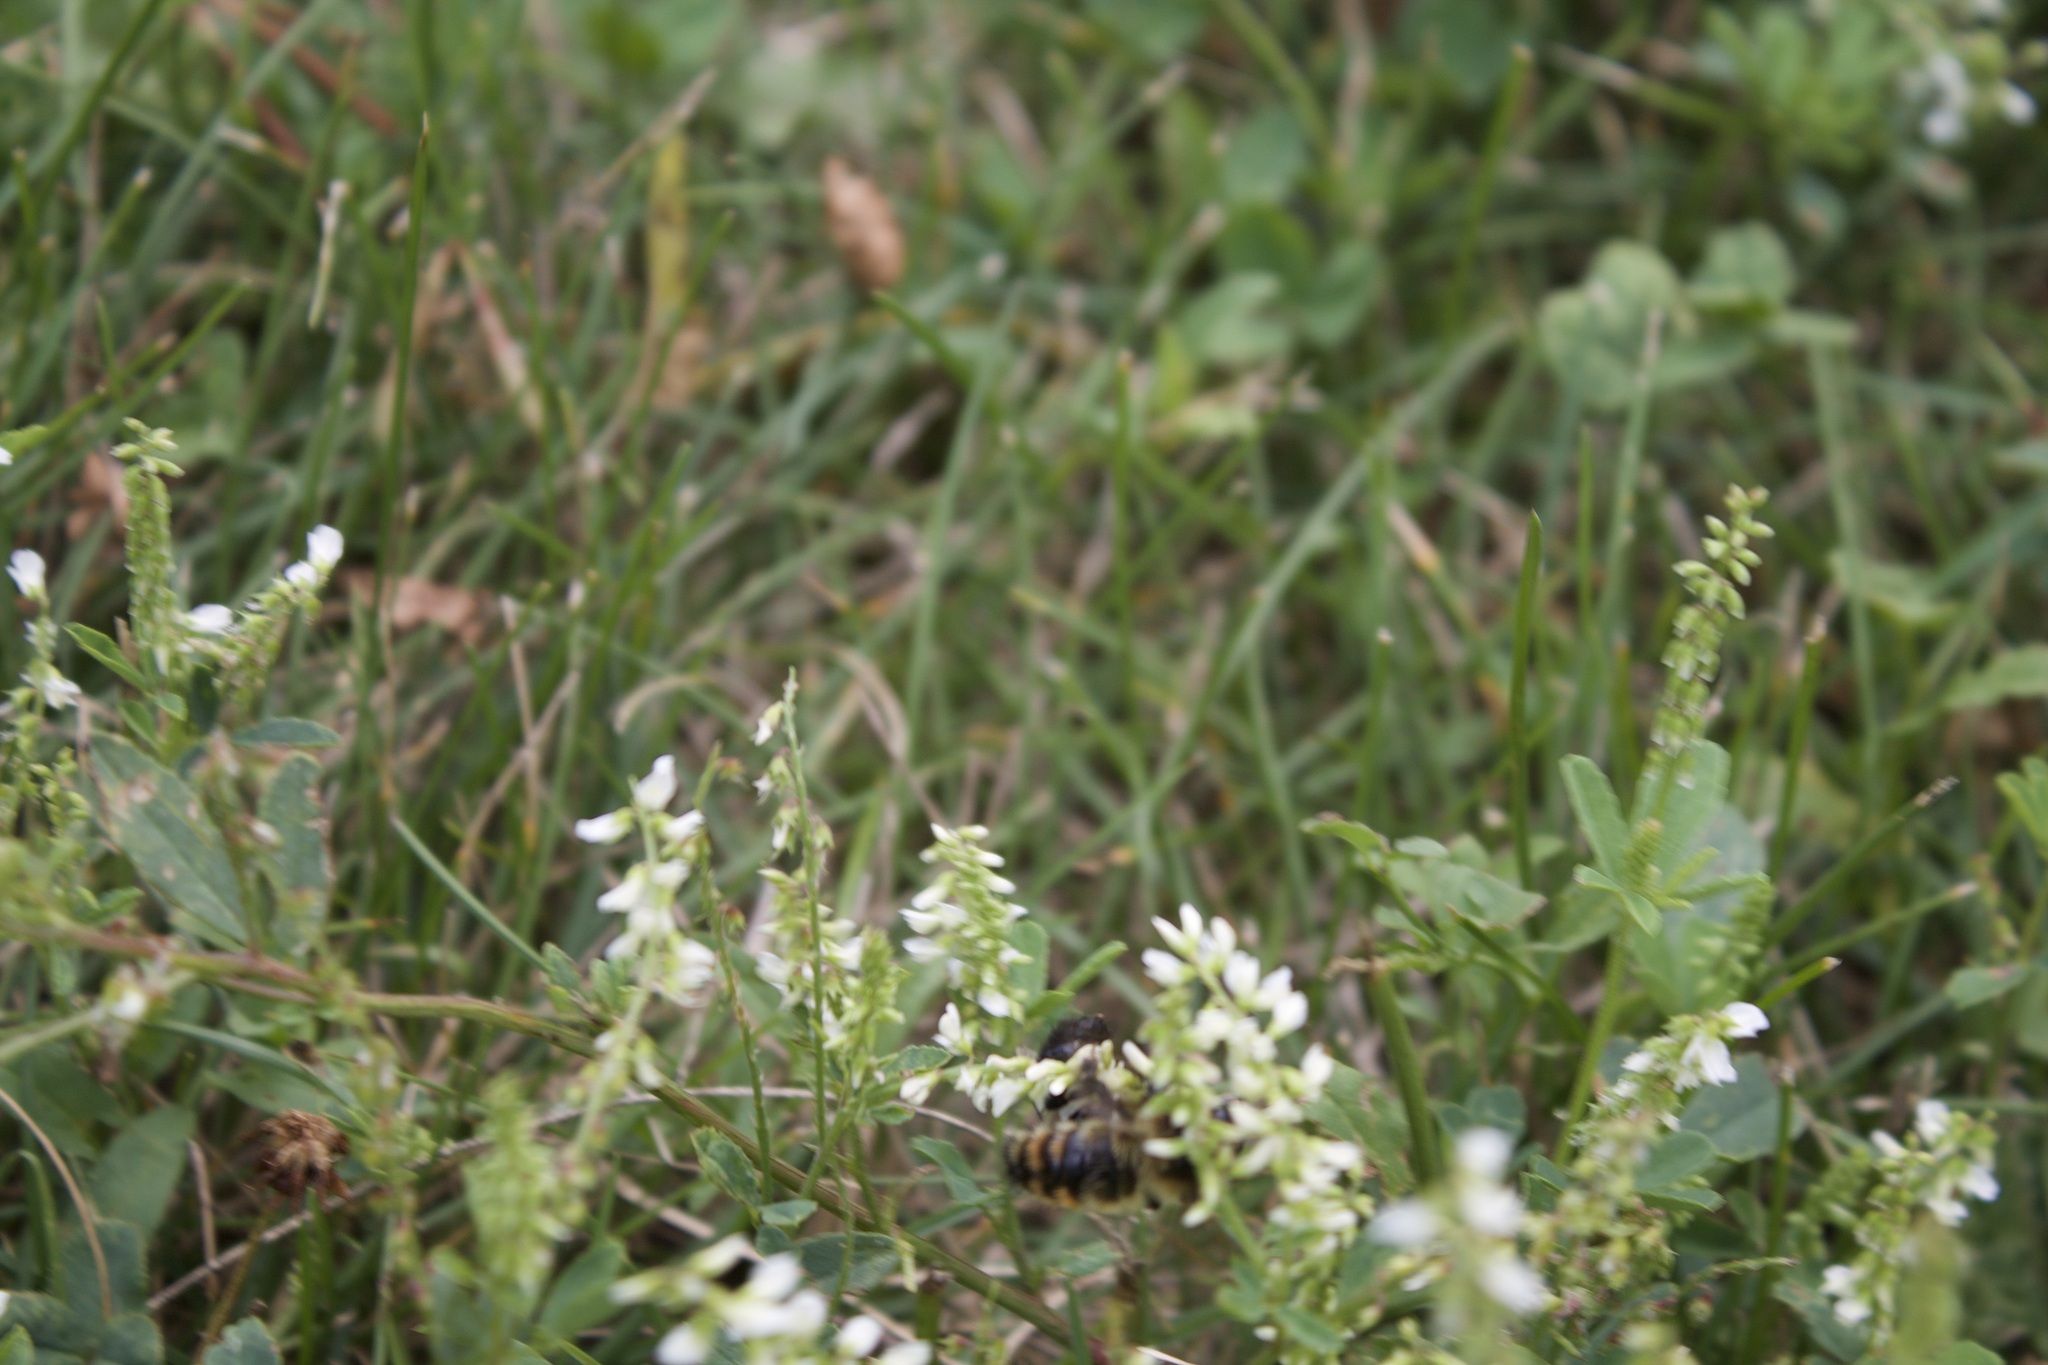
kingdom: Animalia
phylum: Arthropoda
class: Insecta
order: Hymenoptera
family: Apidae
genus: Bombus
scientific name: Bombus rufocinctus
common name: Red-belted bumble bee
